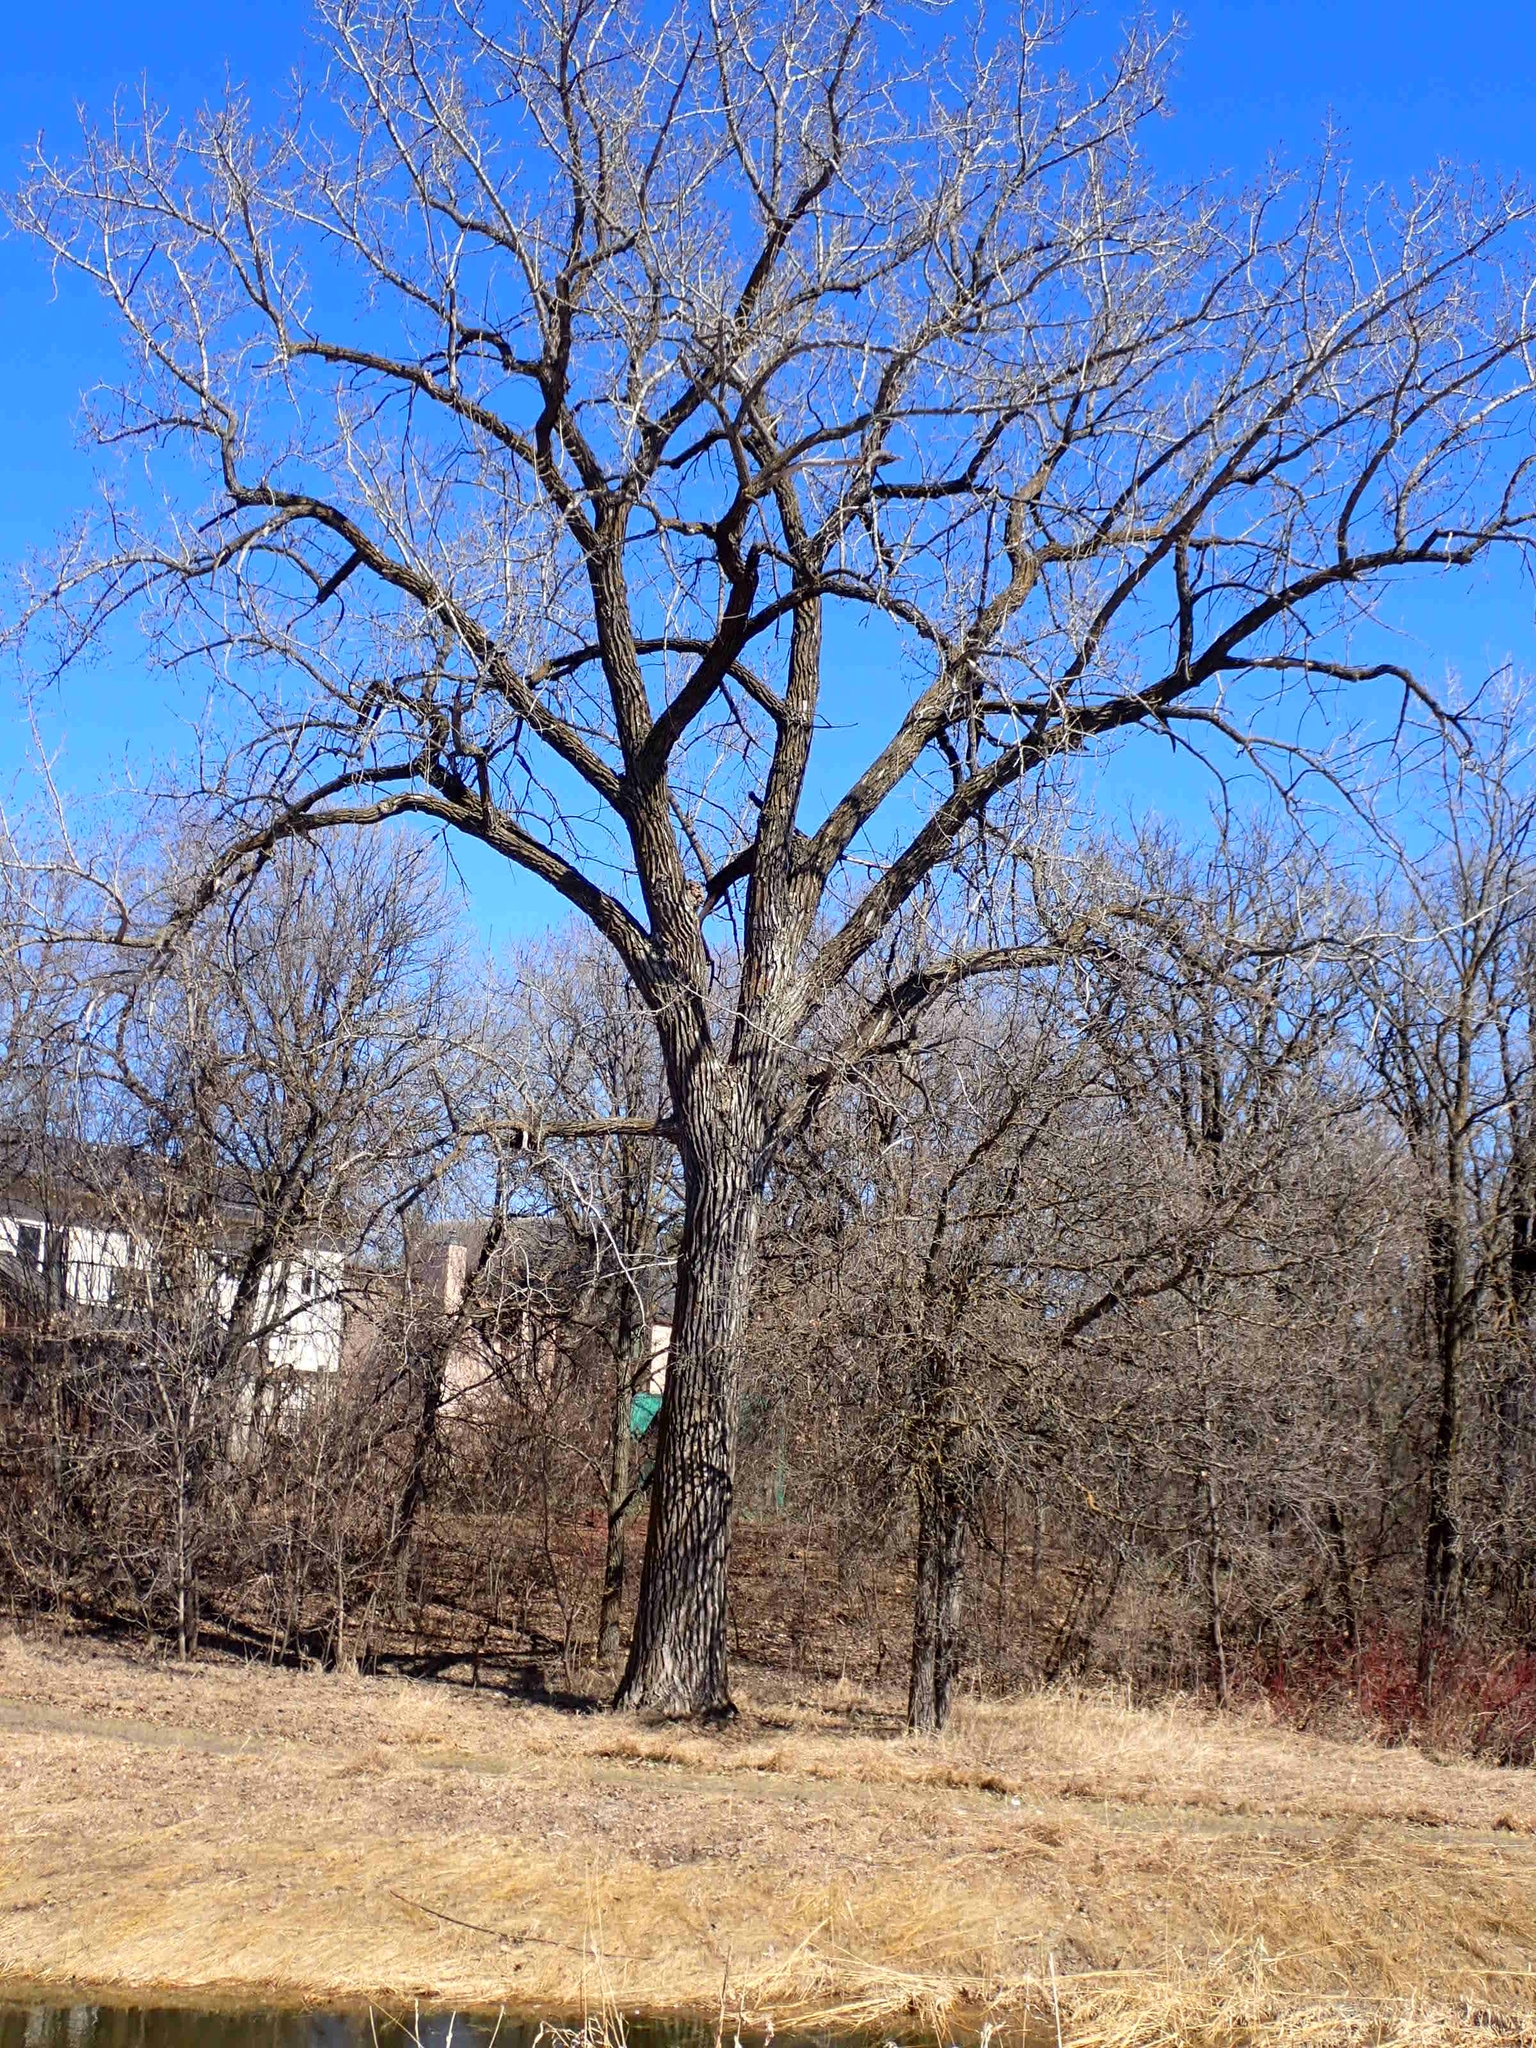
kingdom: Plantae
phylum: Tracheophyta
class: Magnoliopsida
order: Malpighiales
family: Salicaceae
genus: Populus
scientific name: Populus deltoides
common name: Eastern cottonwood
